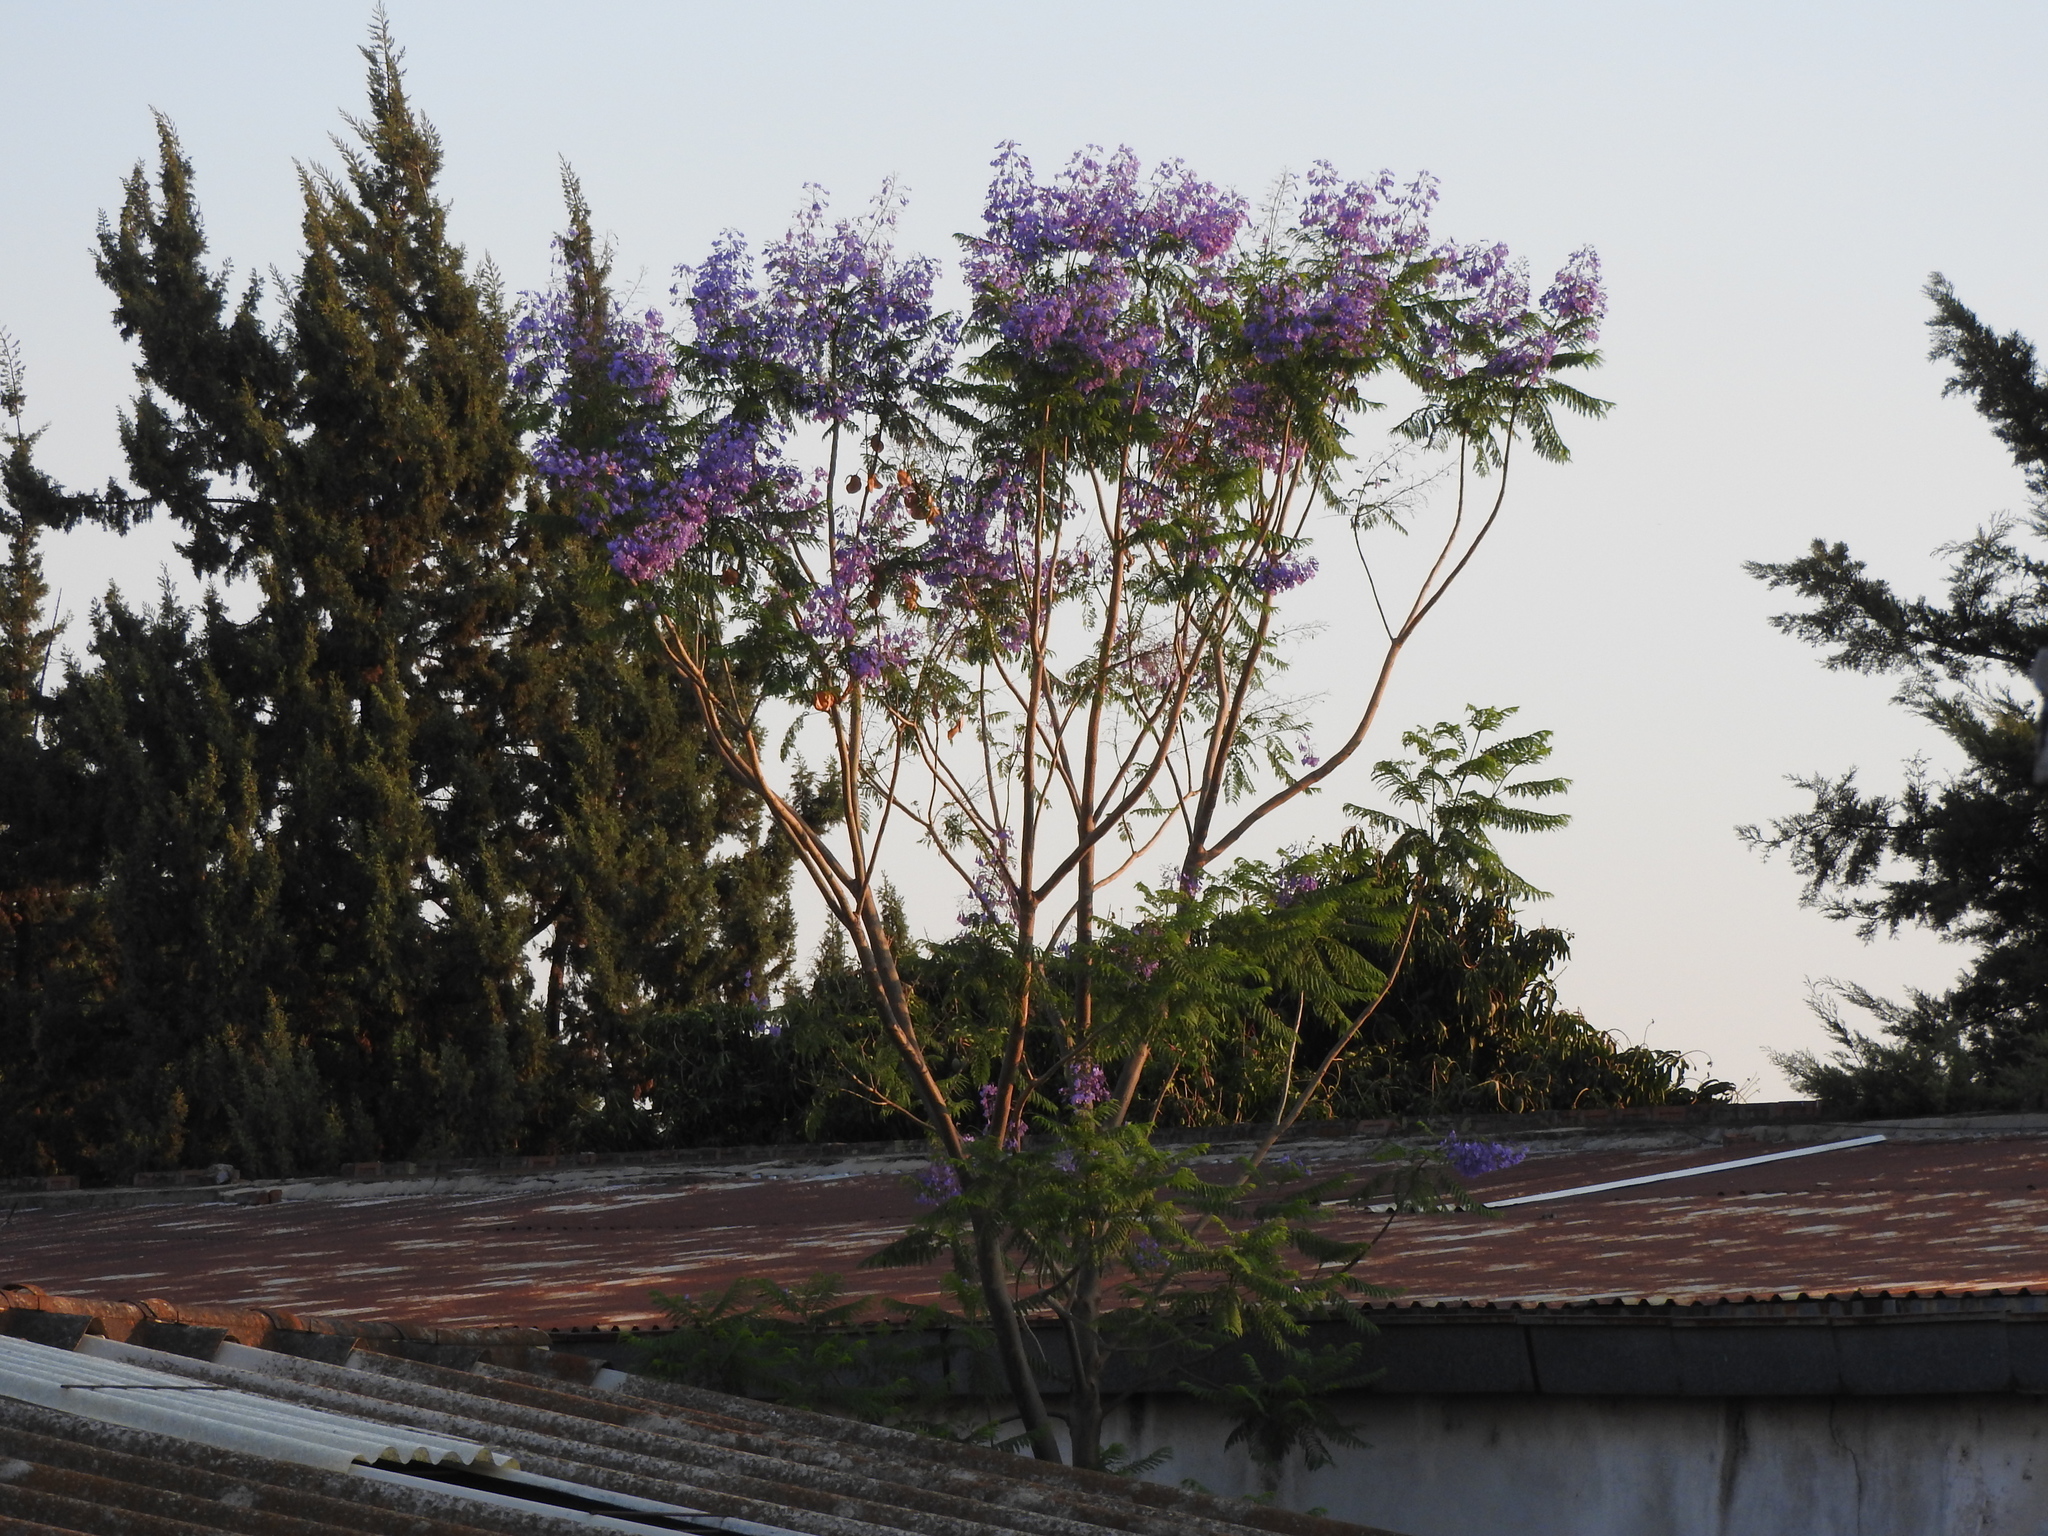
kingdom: Plantae
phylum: Tracheophyta
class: Magnoliopsida
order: Lamiales
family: Bignoniaceae
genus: Jacaranda
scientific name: Jacaranda mimosifolia
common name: Black poui
